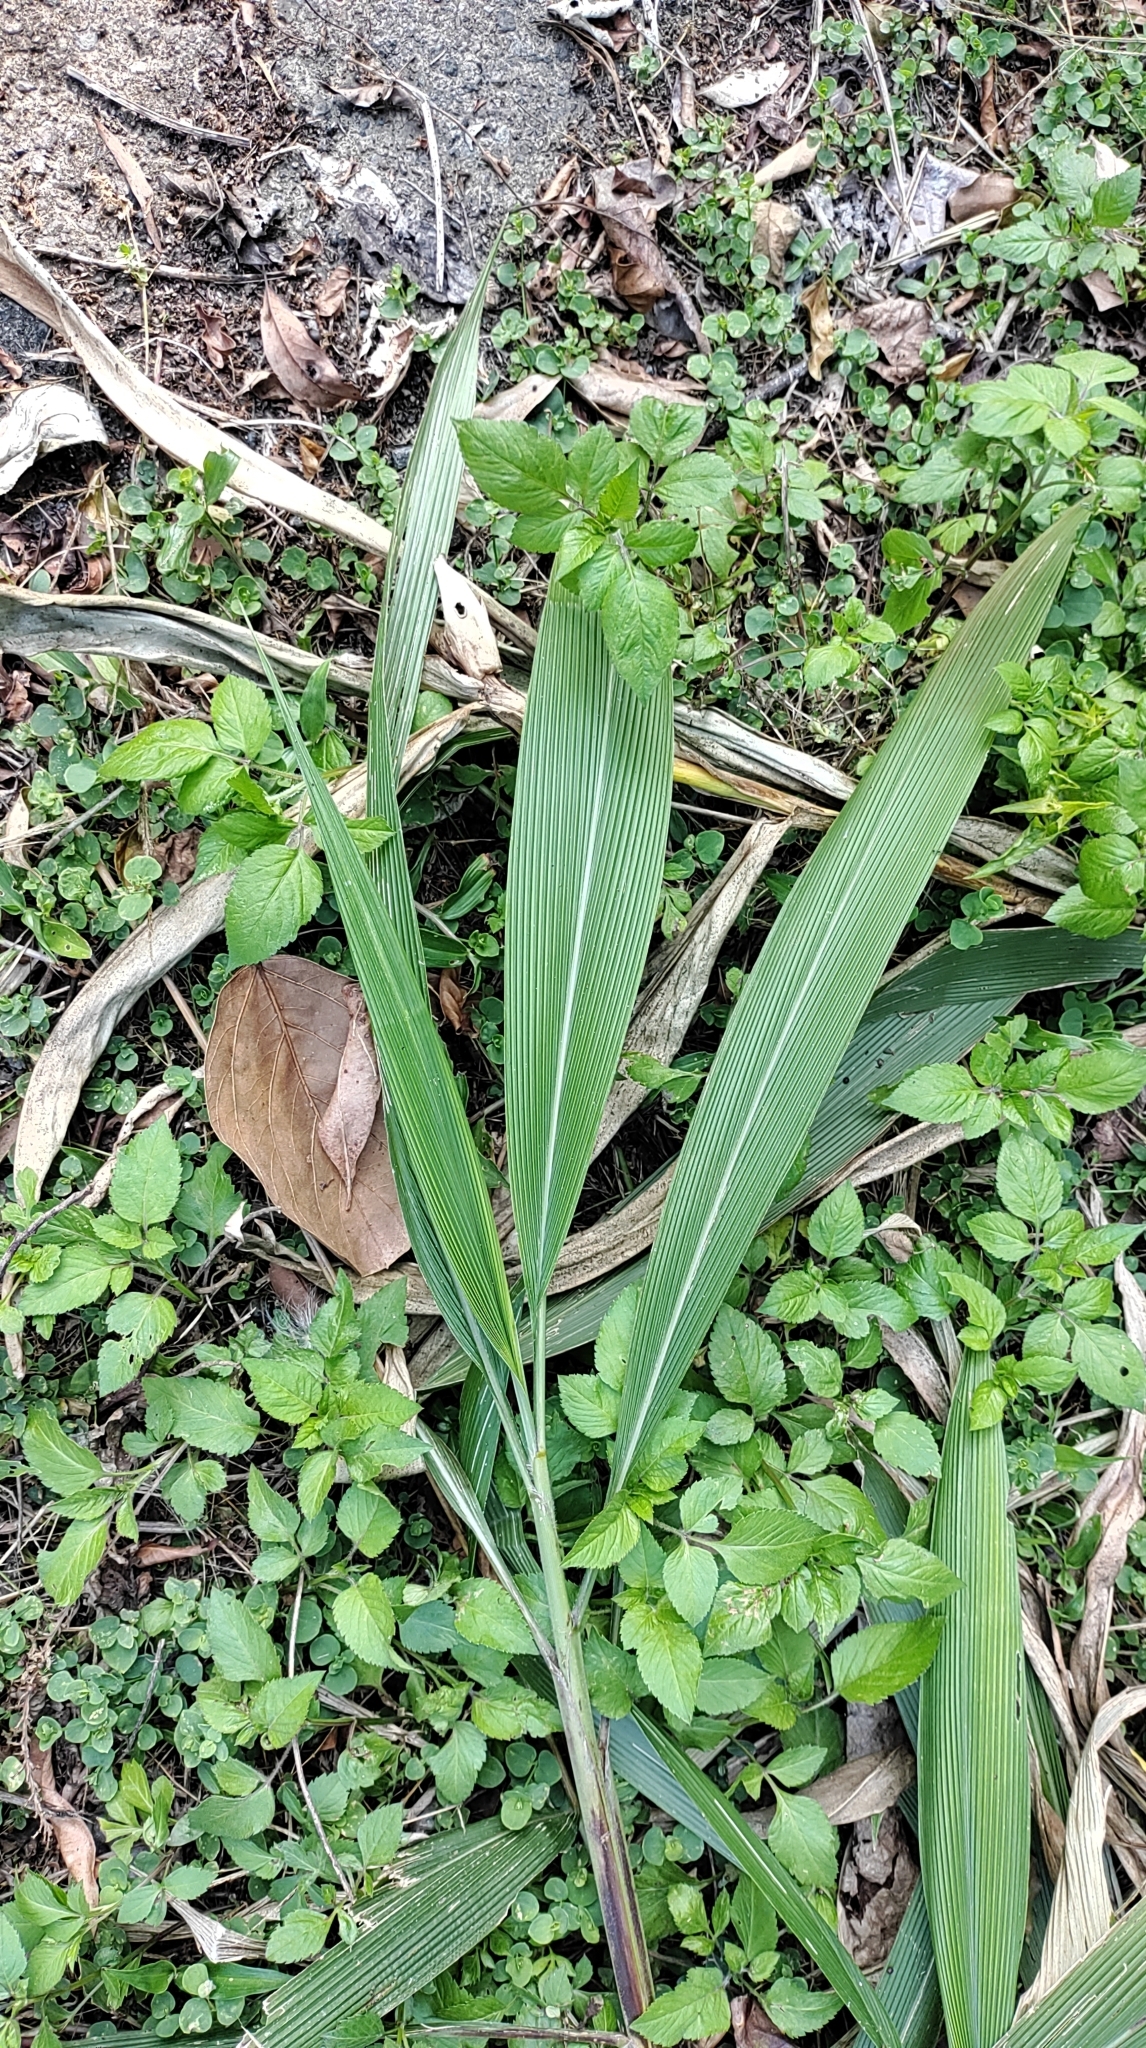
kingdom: Plantae
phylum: Tracheophyta
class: Liliopsida
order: Poales
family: Poaceae
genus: Setaria
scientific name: Setaria palmifolia
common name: Broadleaved bristlegrass
